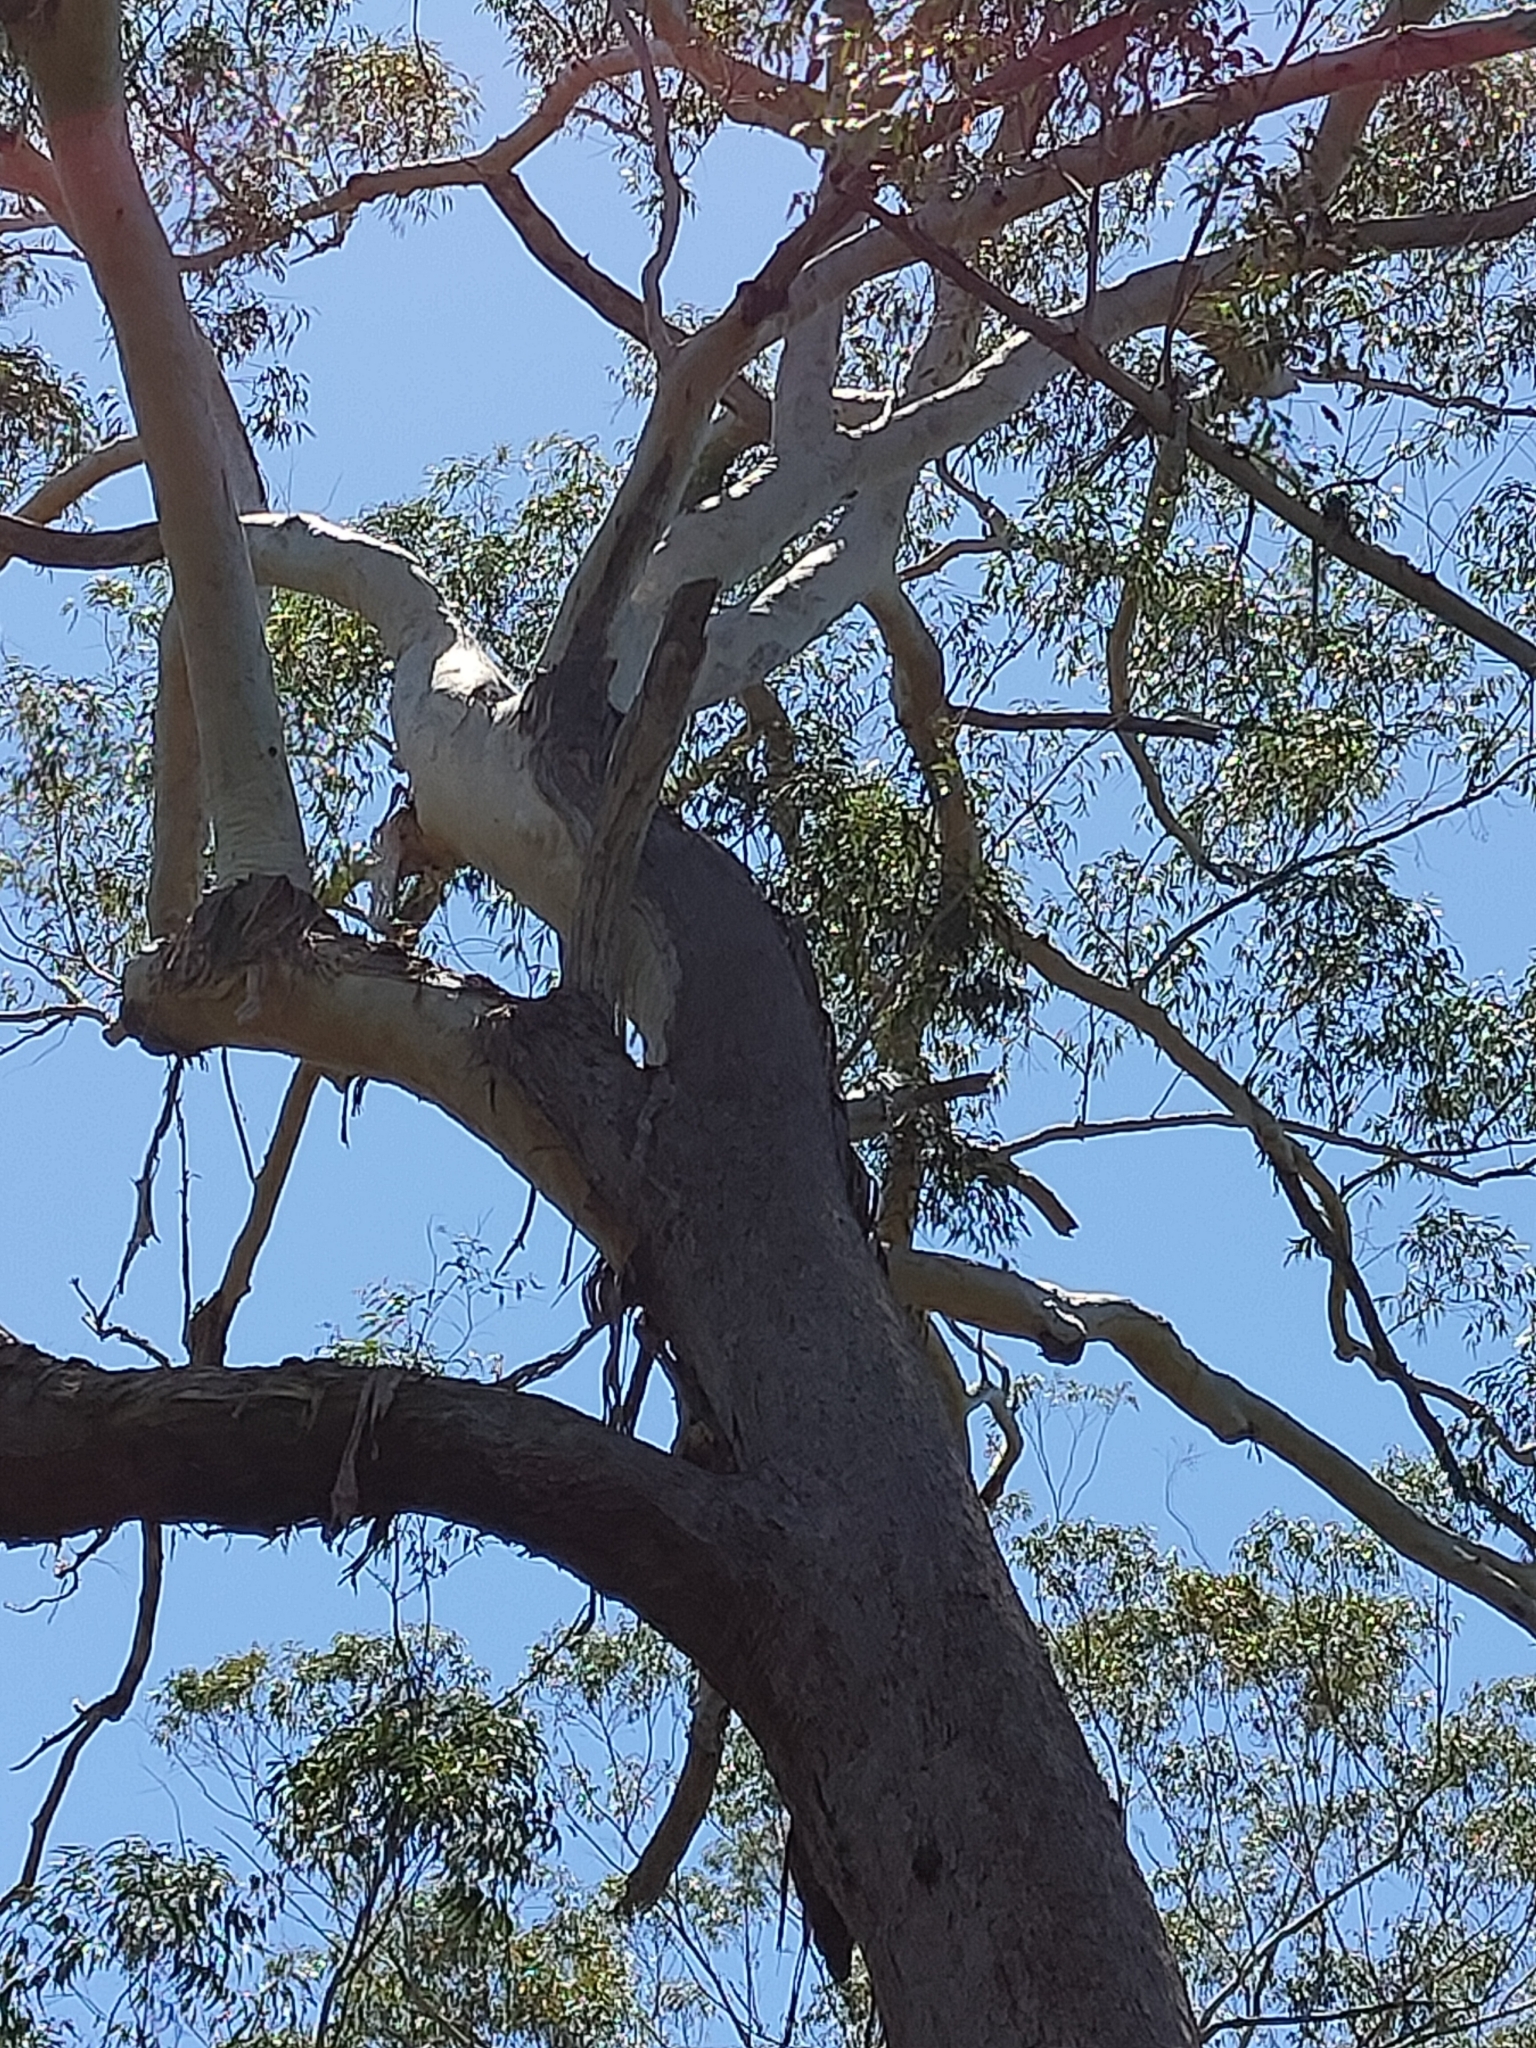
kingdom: Plantae
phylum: Tracheophyta
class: Magnoliopsida
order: Myrtales
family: Myrtaceae
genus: Eucalyptus
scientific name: Eucalyptus pilularis
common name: Blackbutt
